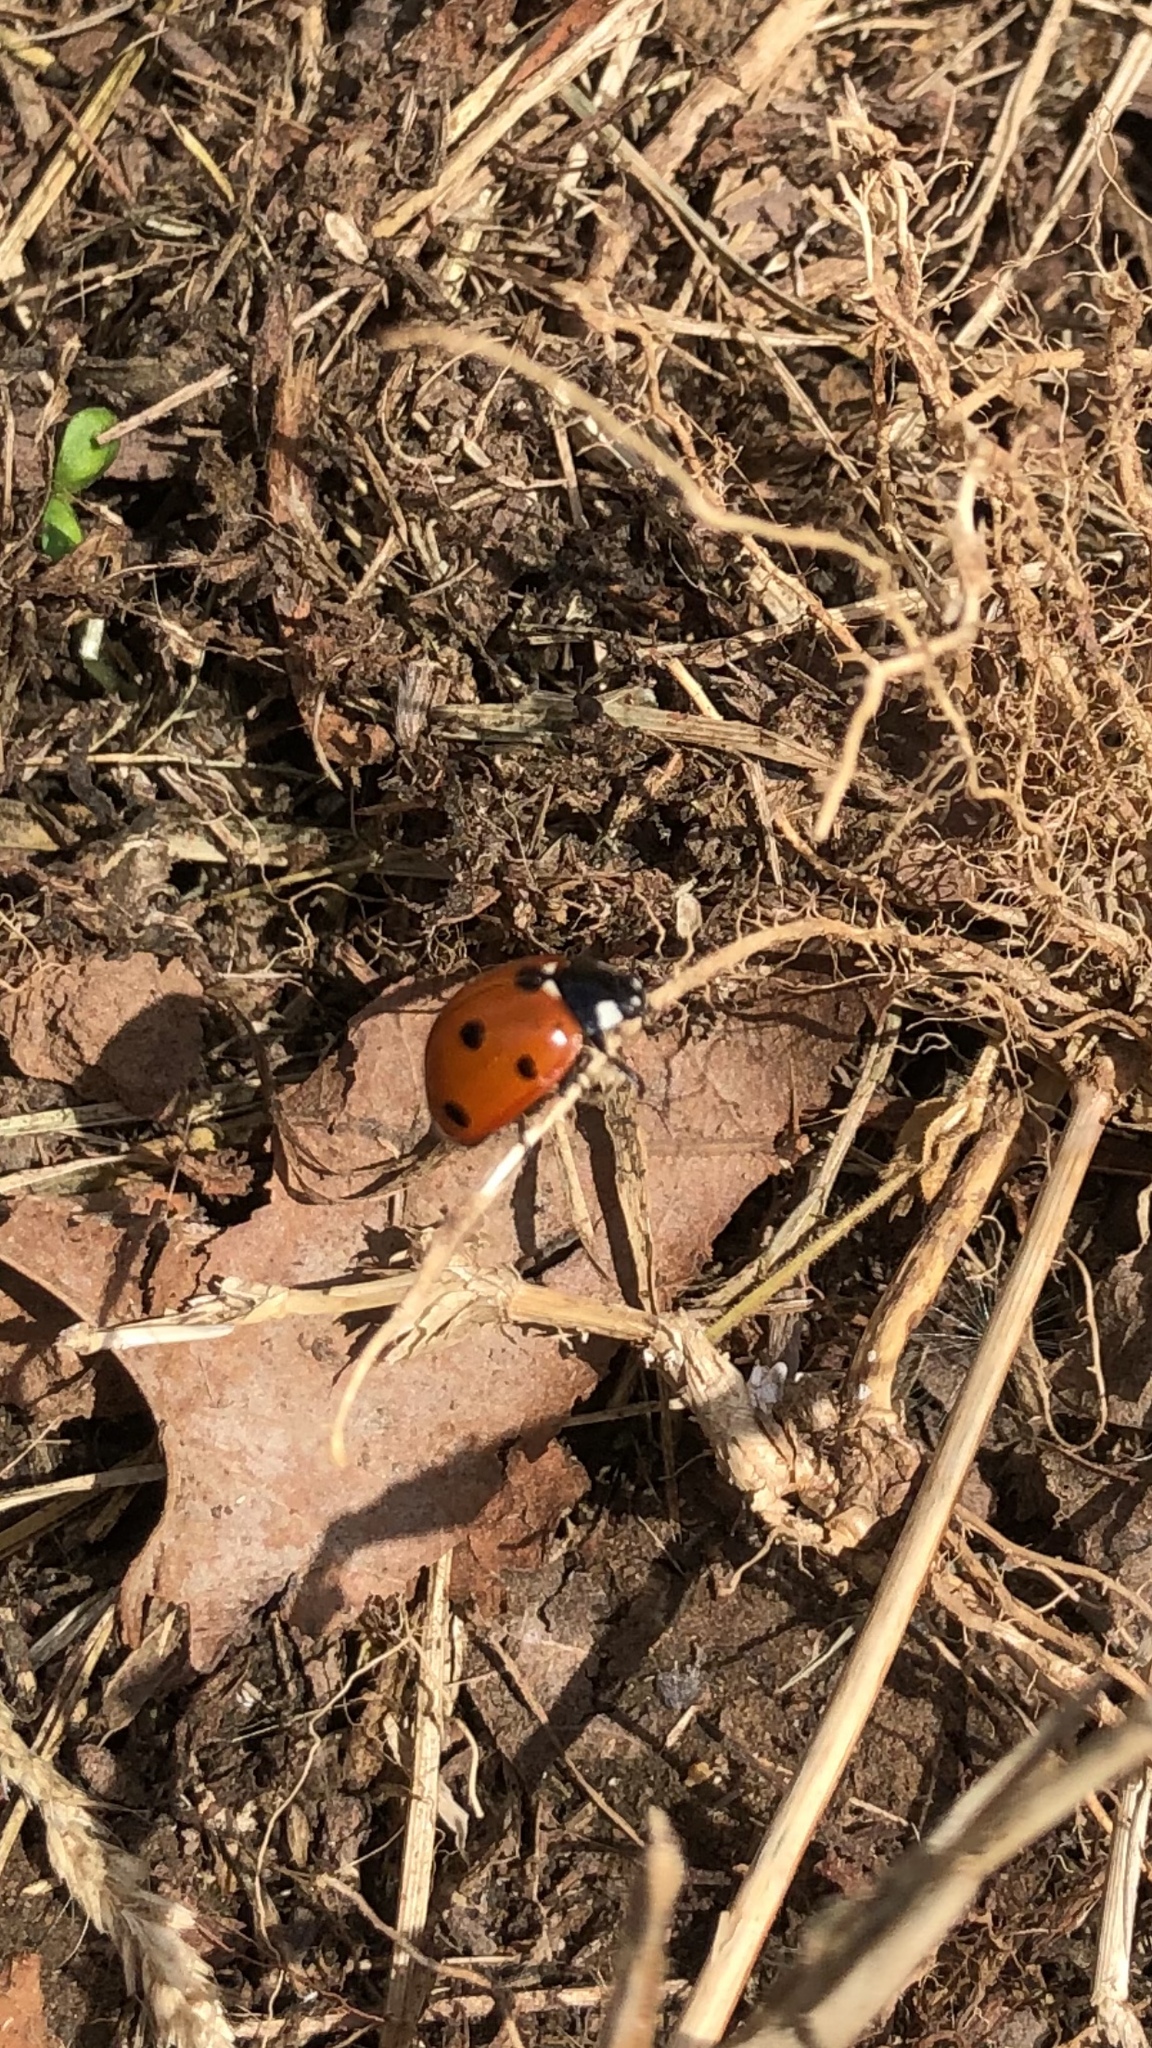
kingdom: Animalia
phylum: Arthropoda
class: Insecta
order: Coleoptera
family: Coccinellidae
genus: Coccinella
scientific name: Coccinella septempunctata
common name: Sevenspotted lady beetle
